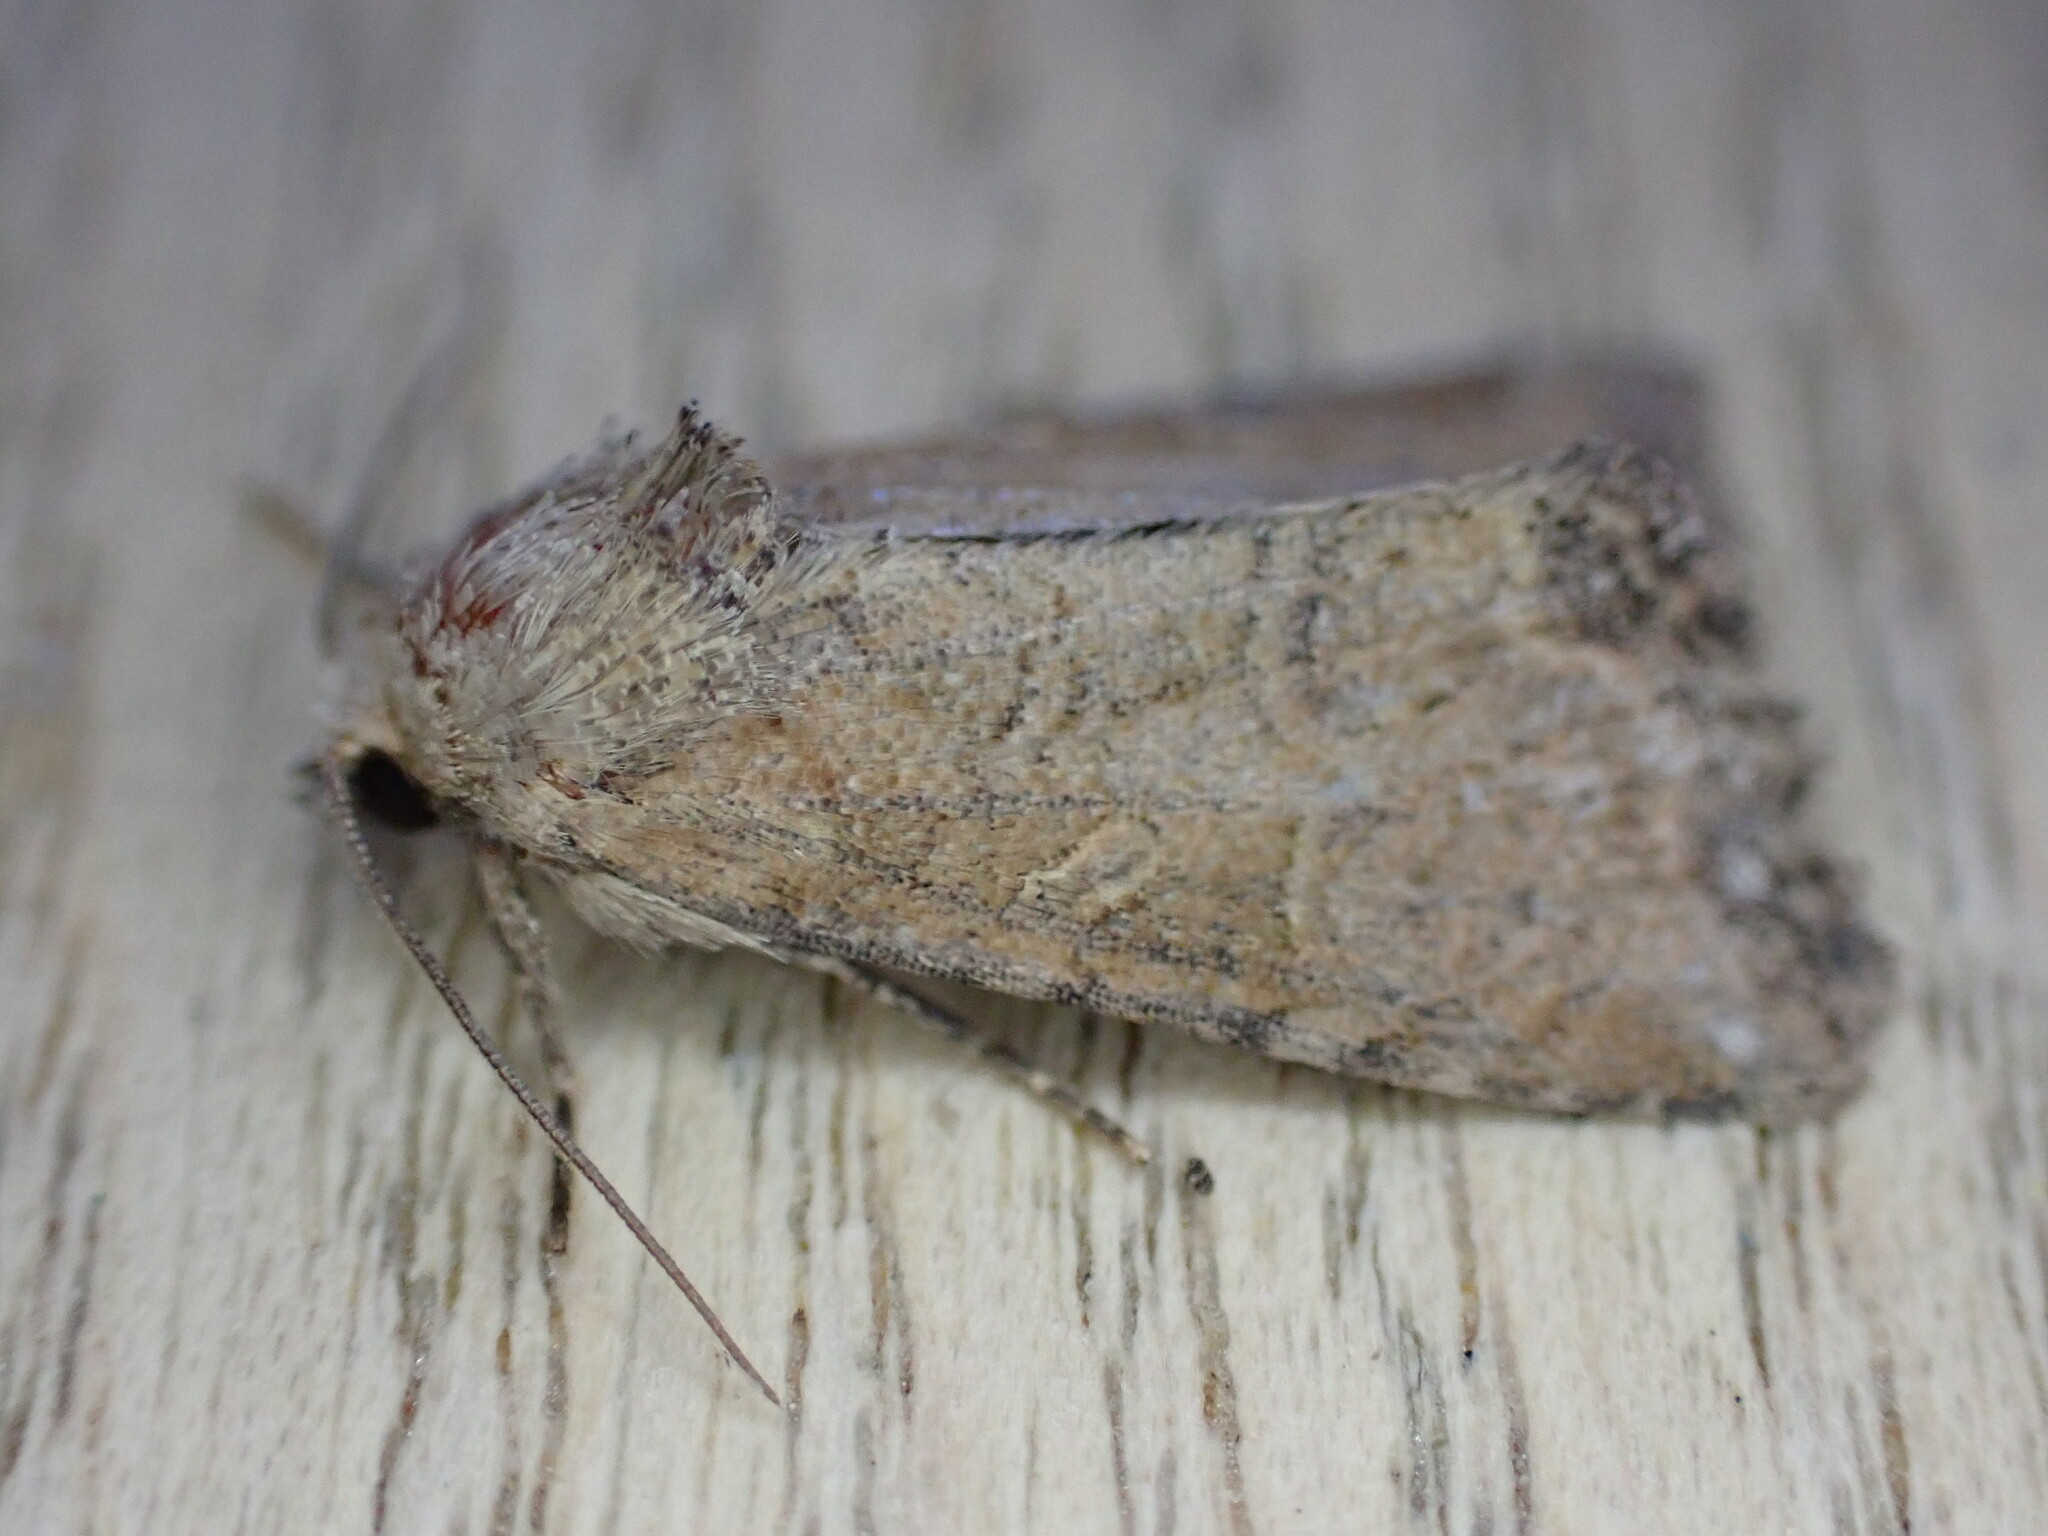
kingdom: Animalia
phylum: Arthropoda
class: Insecta
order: Lepidoptera
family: Noctuidae
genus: Mesoligia
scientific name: Mesoligia furuncula
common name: Cloaked minor
